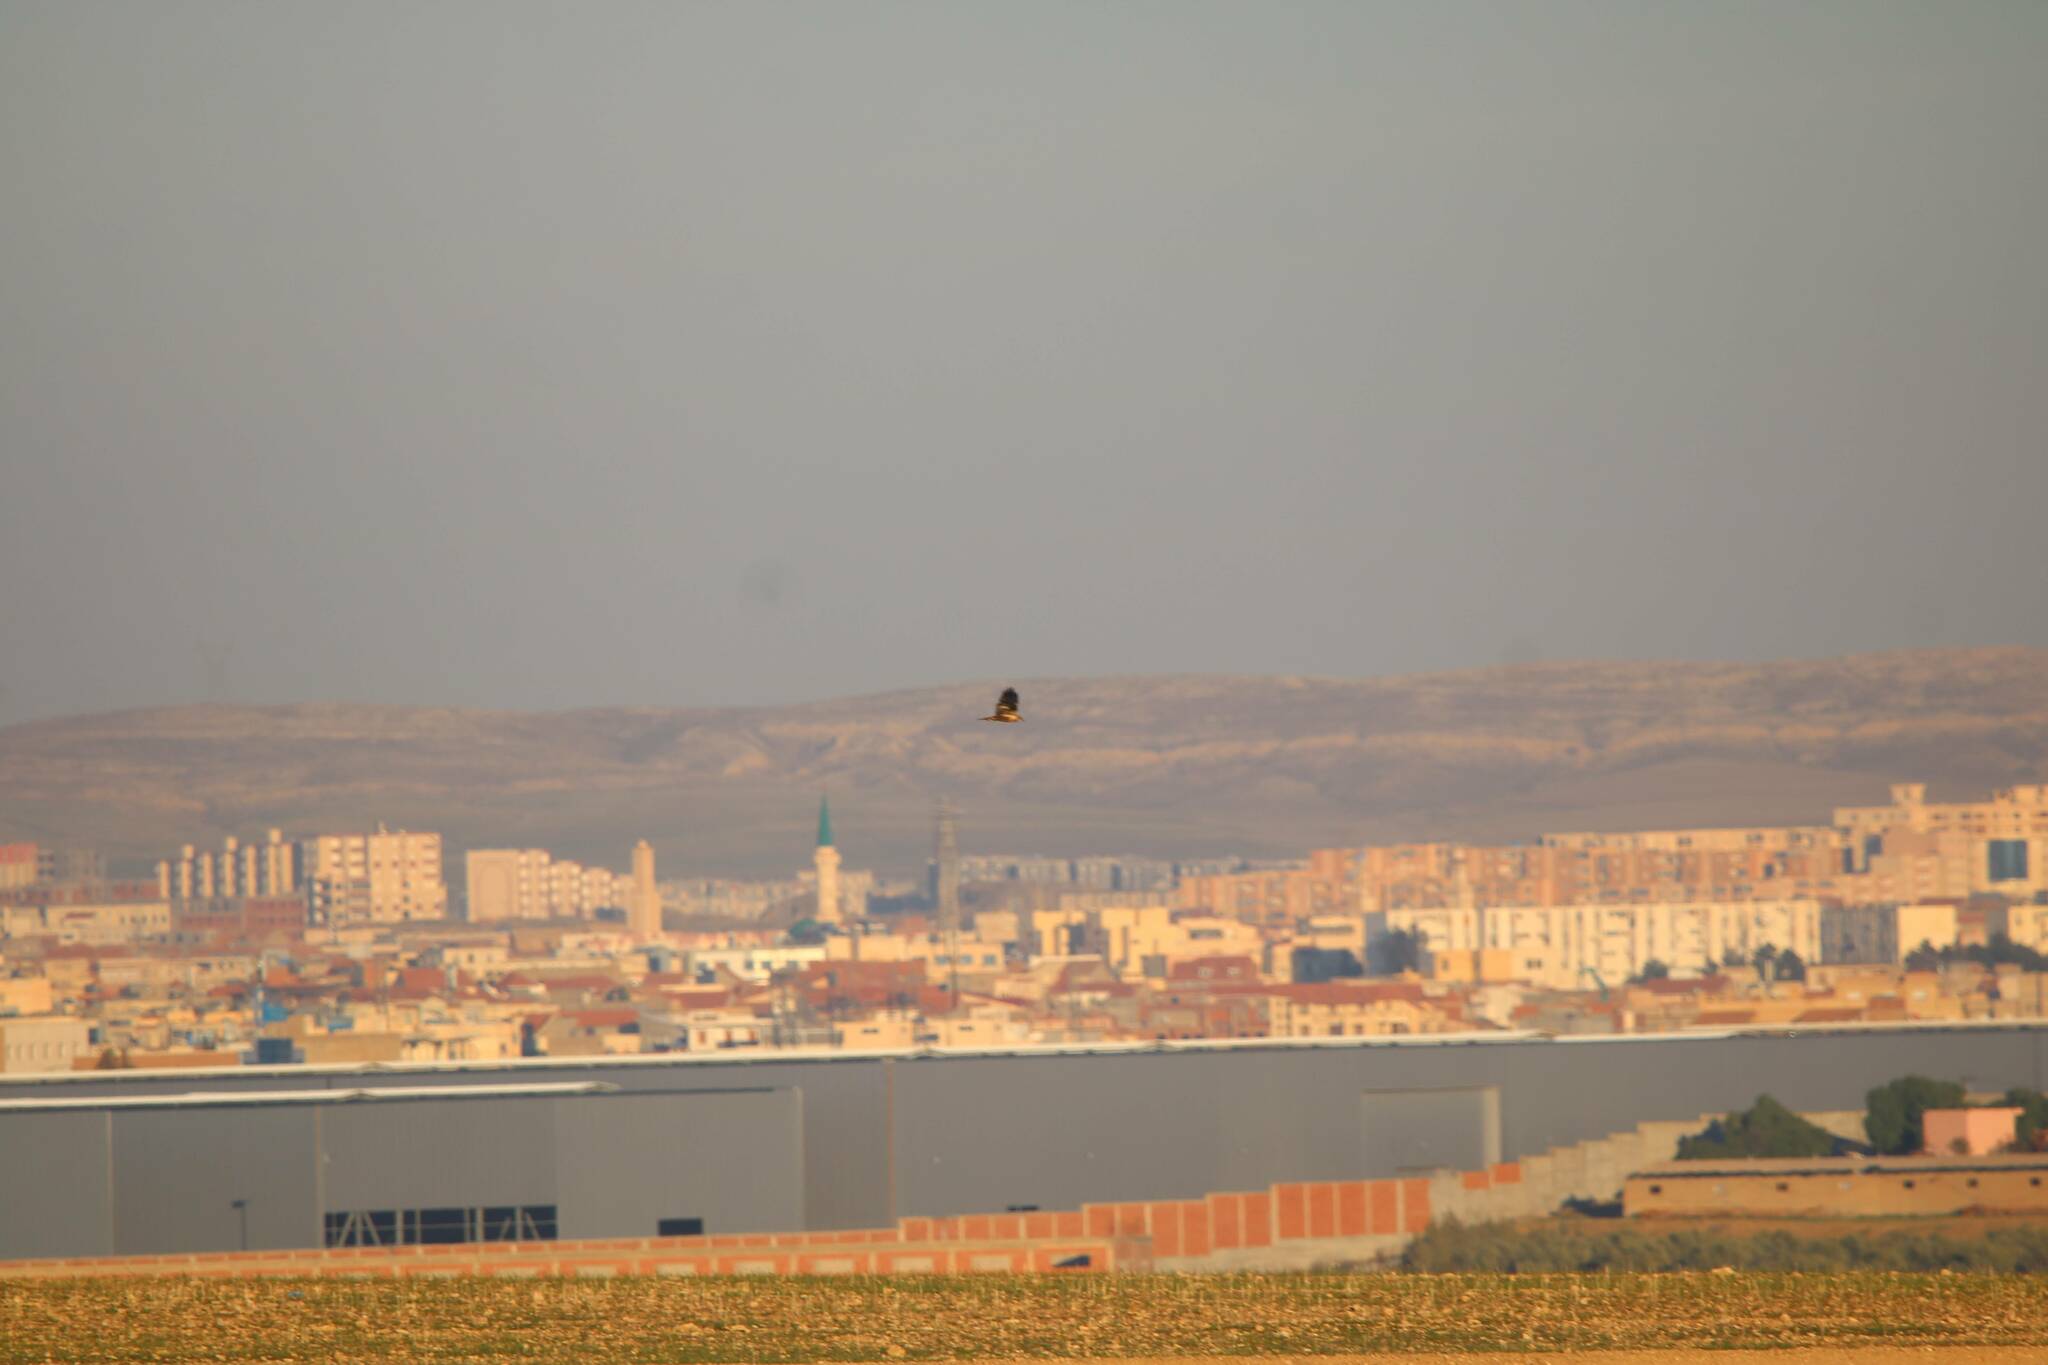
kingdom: Animalia
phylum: Chordata
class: Aves
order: Accipitriformes
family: Accipitridae
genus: Circus
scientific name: Circus aeruginosus
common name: Western marsh harrier
